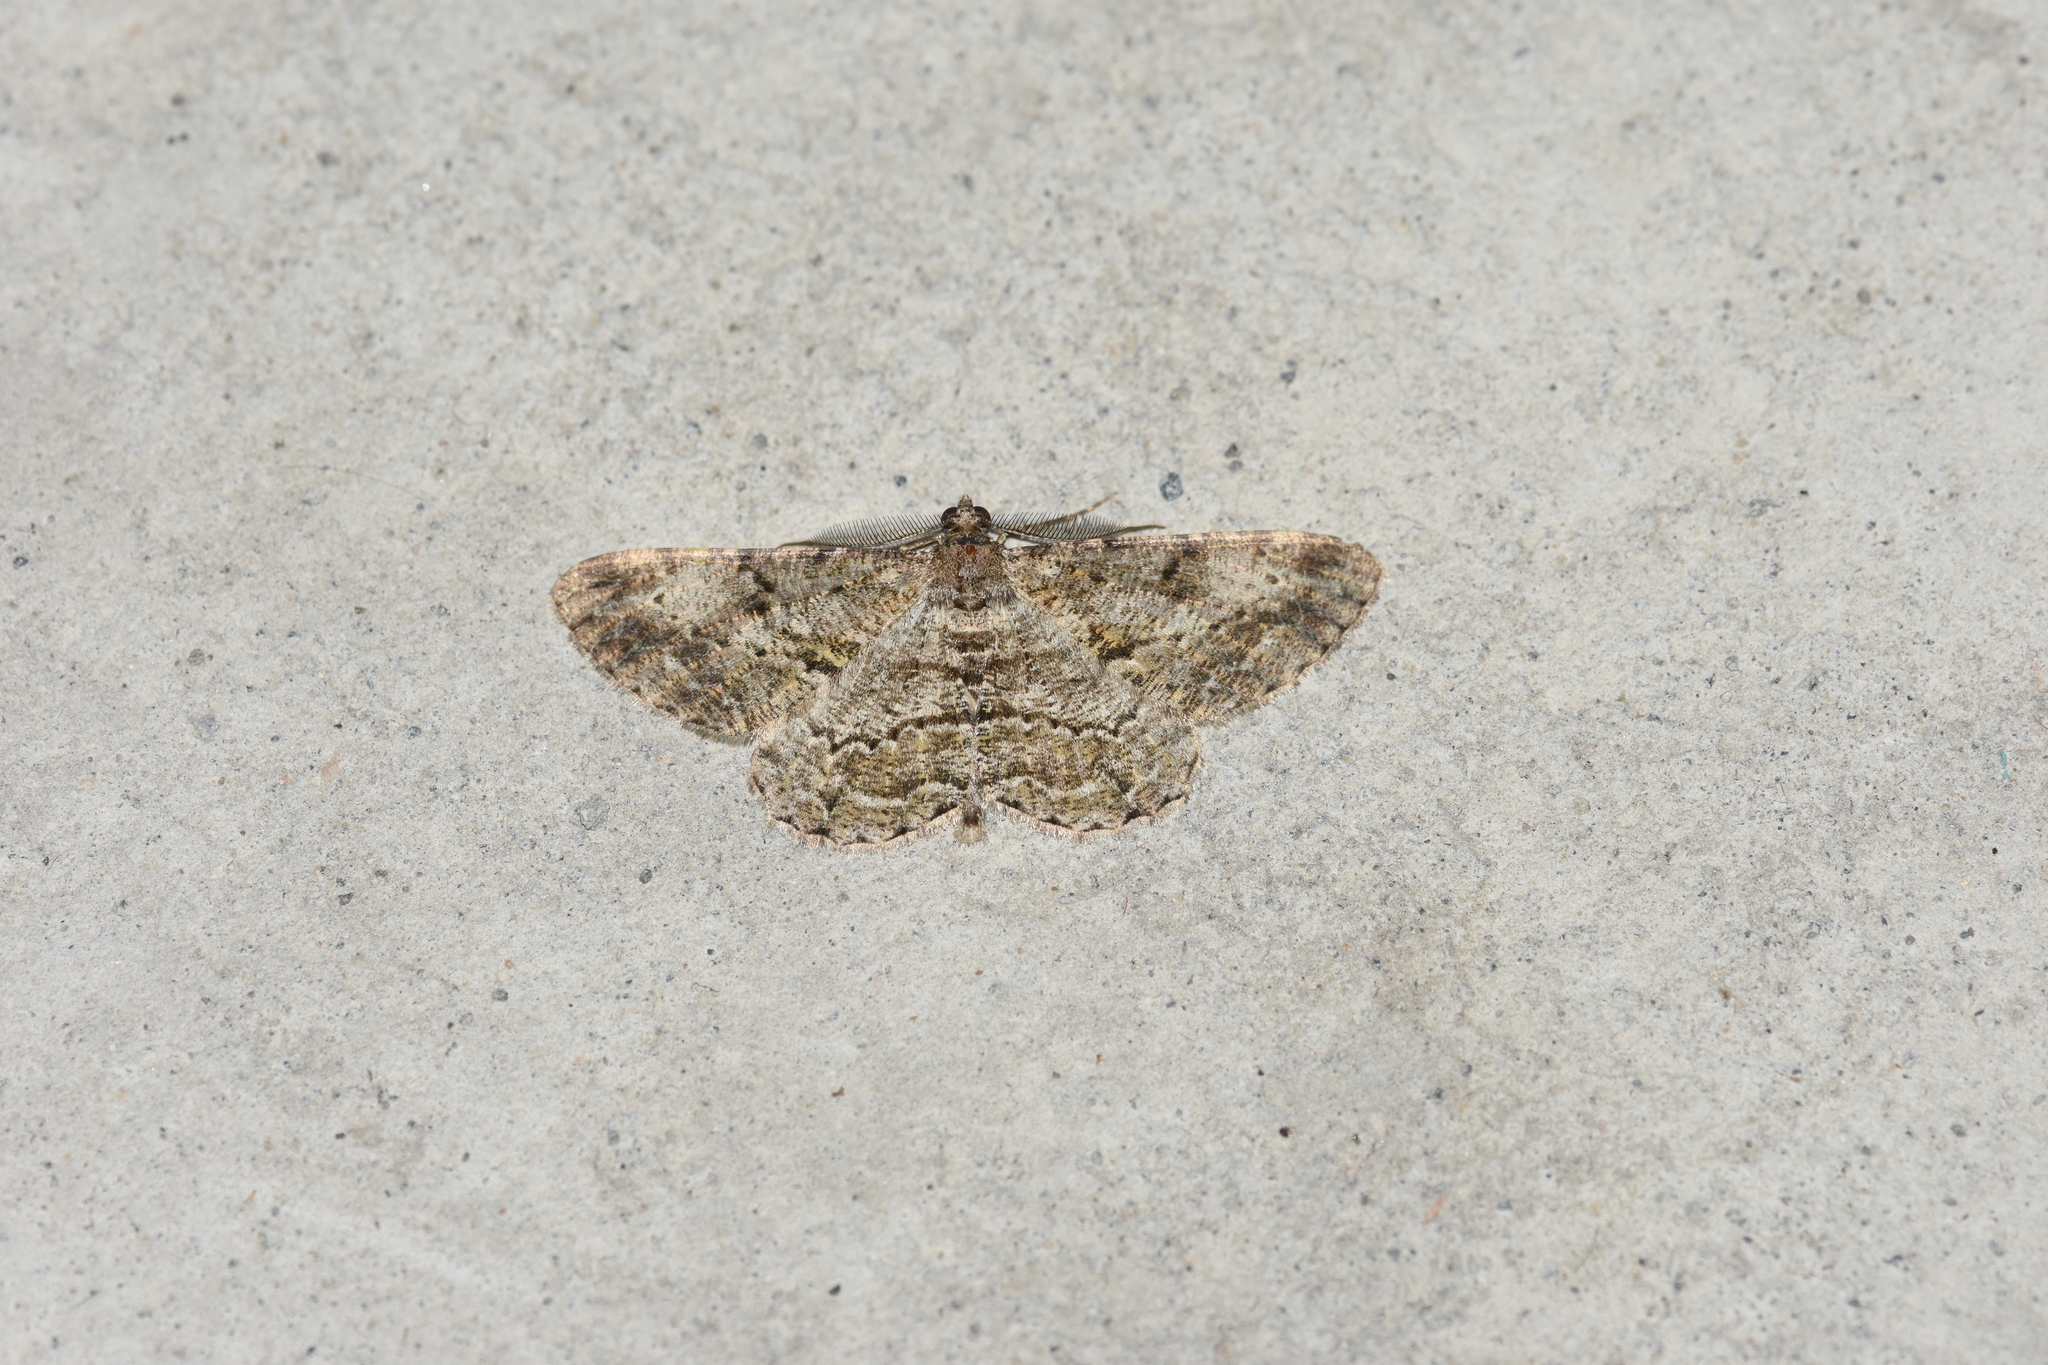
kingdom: Animalia
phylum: Arthropoda
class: Insecta
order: Lepidoptera
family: Geometridae
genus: Peribatodes
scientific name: Peribatodes rhomboidaria
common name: Willow beauty
